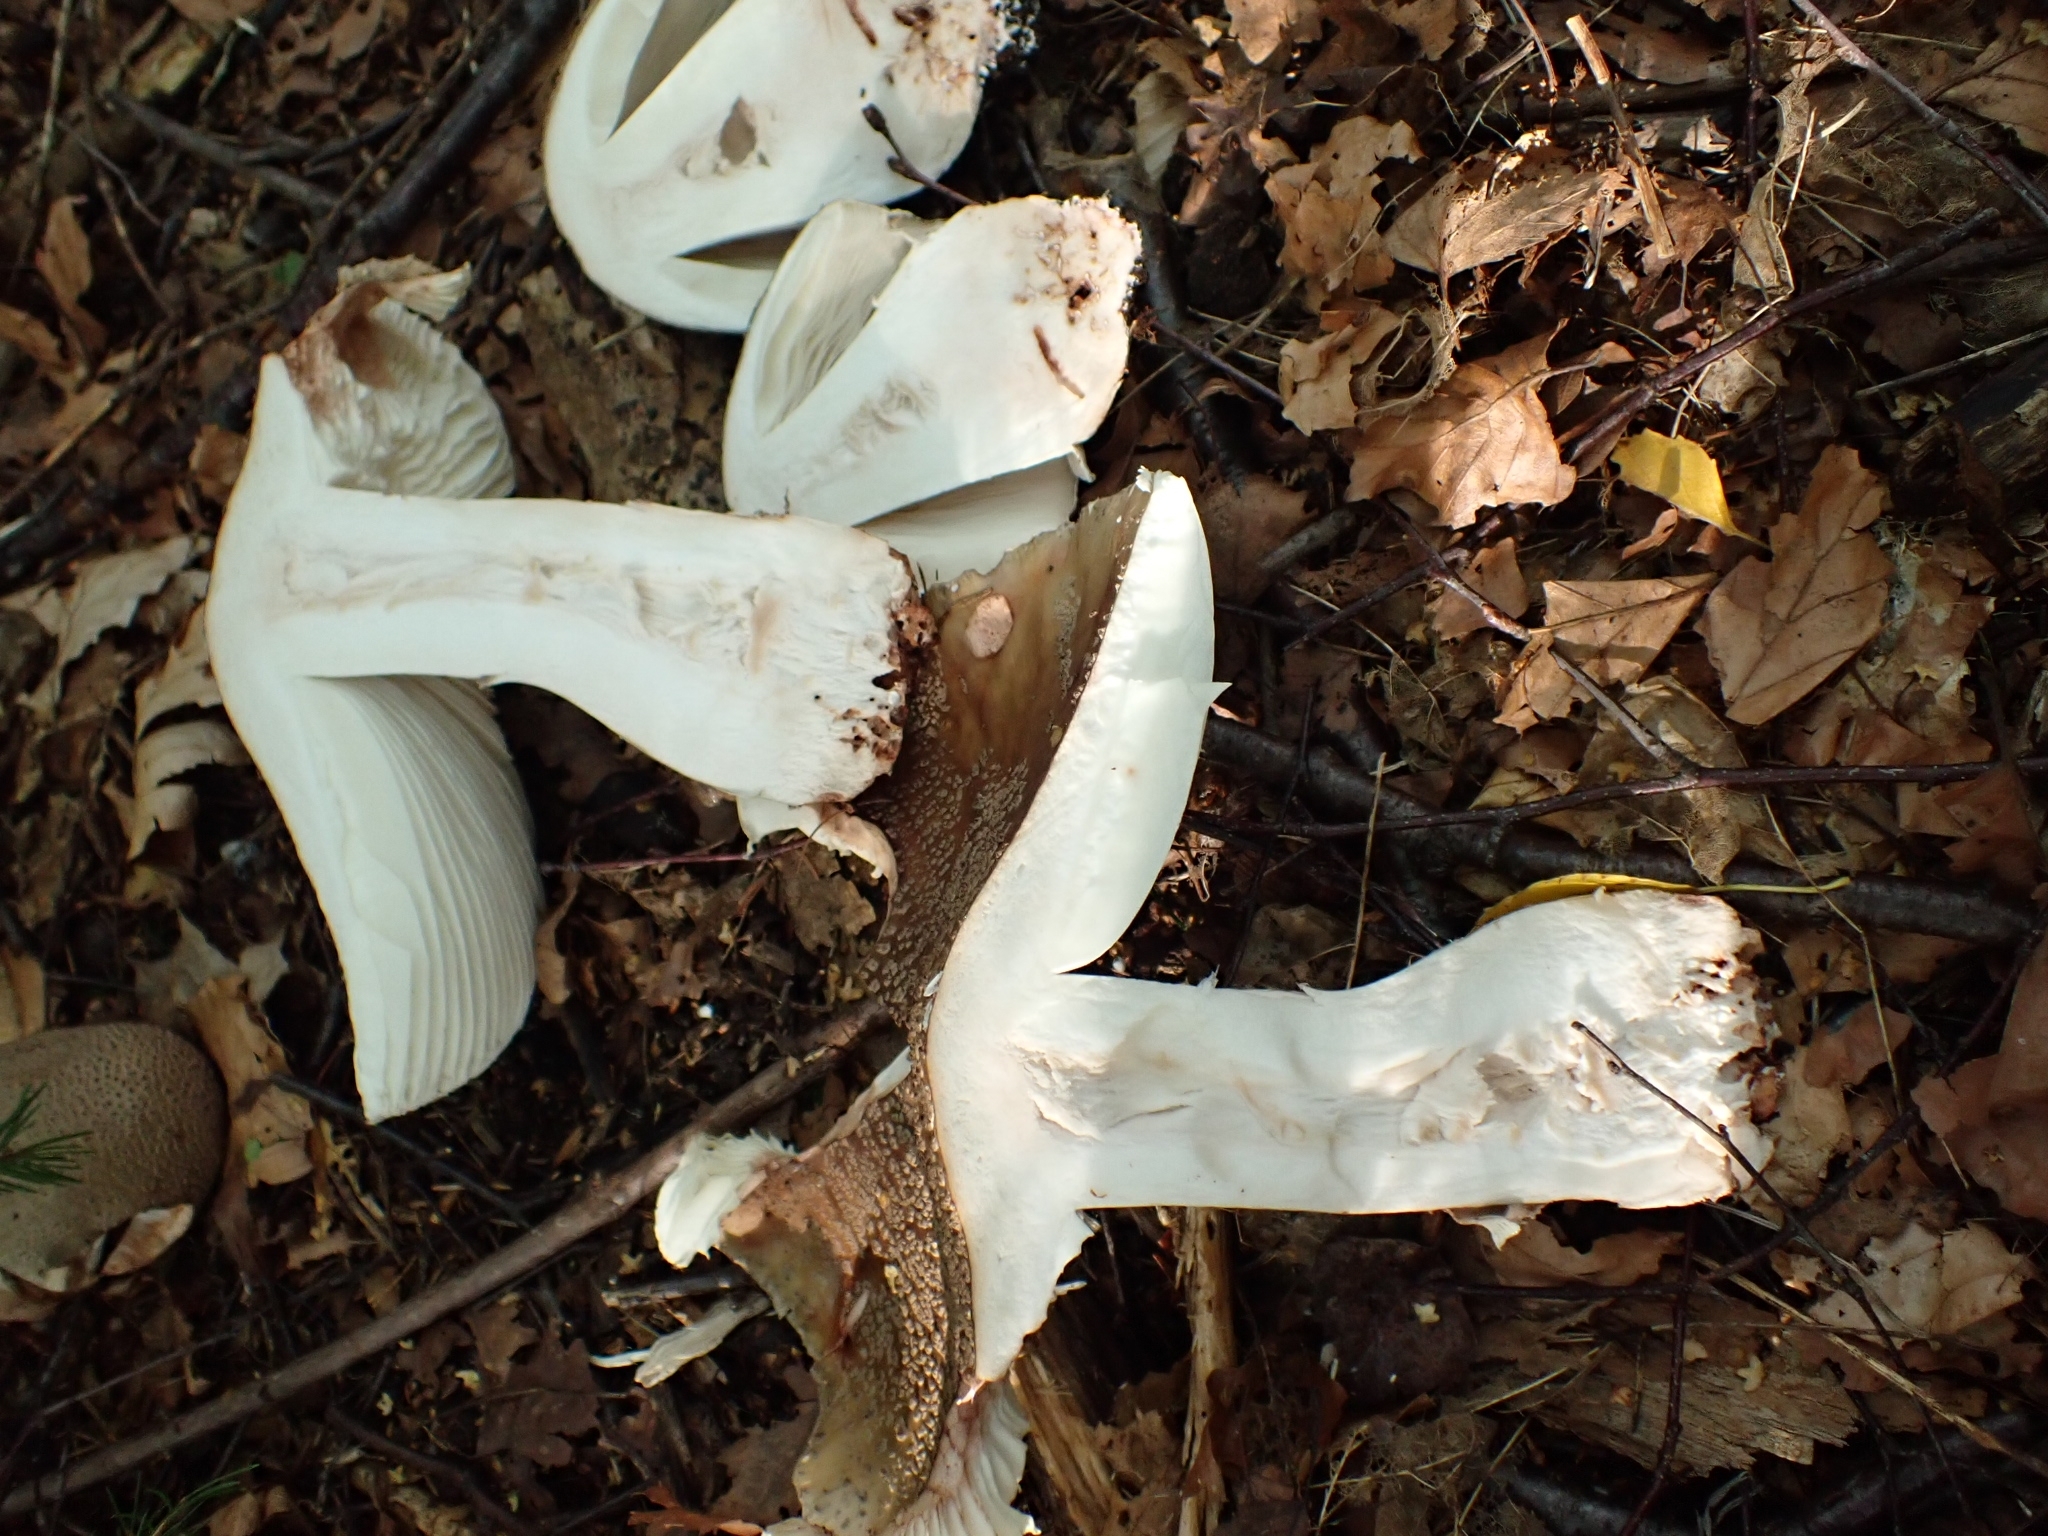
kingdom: Fungi
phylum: Basidiomycota
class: Agaricomycetes
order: Agaricales
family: Amanitaceae
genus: Amanita
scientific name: Amanita rubescens
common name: Blusher
